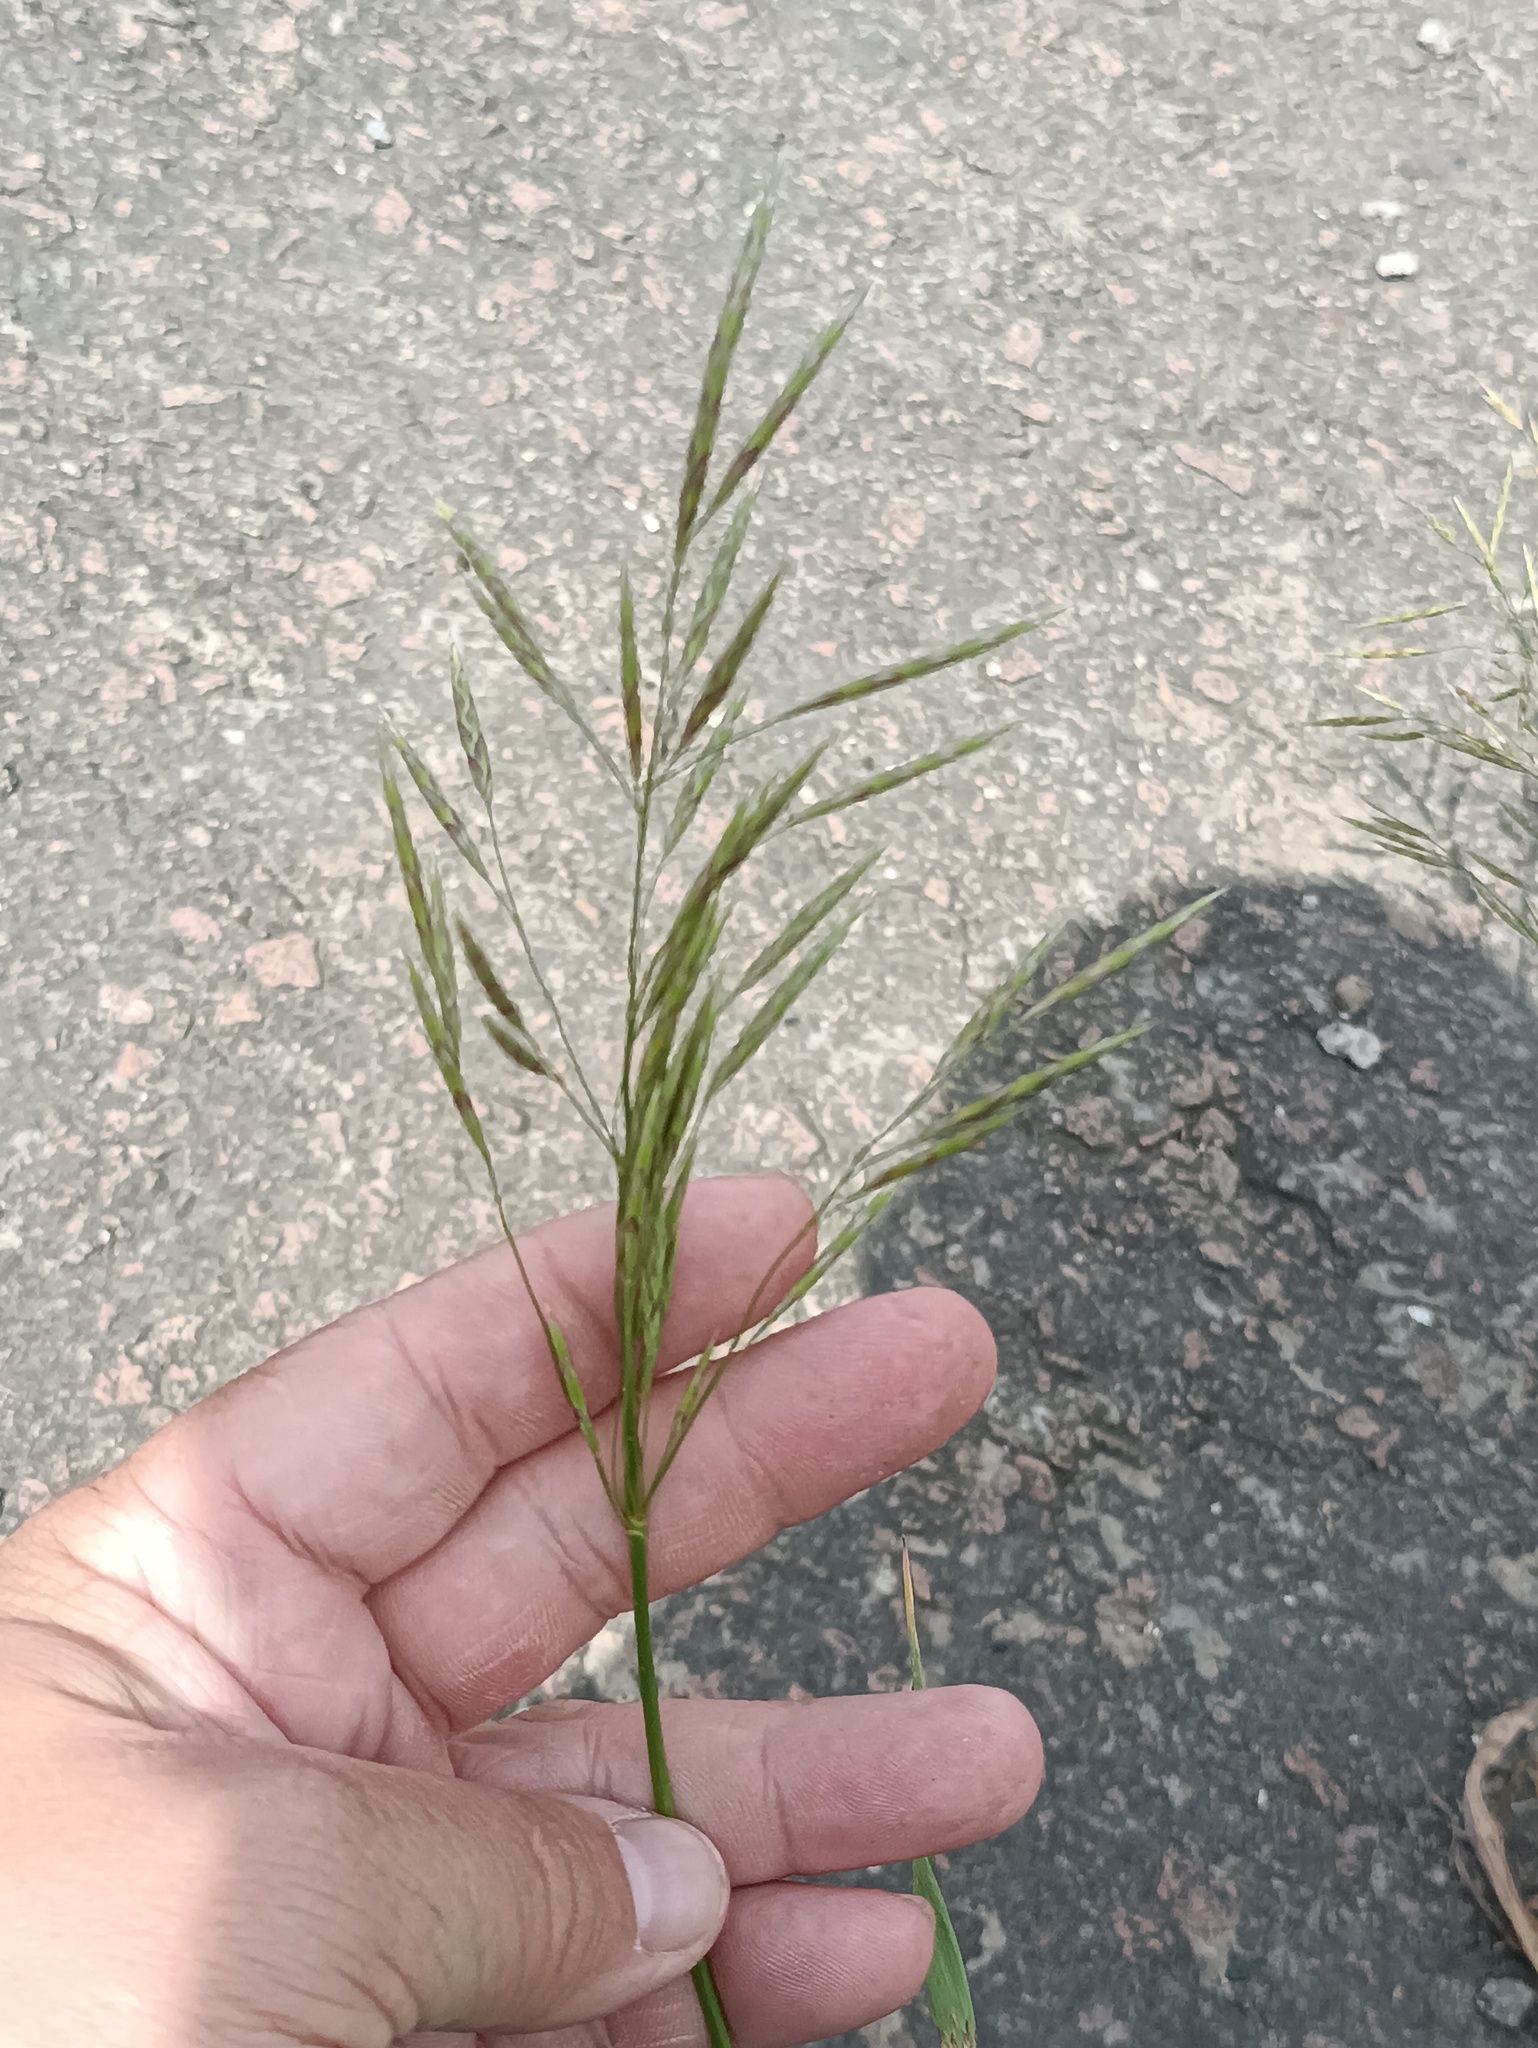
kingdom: Plantae
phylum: Tracheophyta
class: Liliopsida
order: Poales
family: Poaceae
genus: Bromus
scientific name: Bromus inermis
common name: Smooth brome
